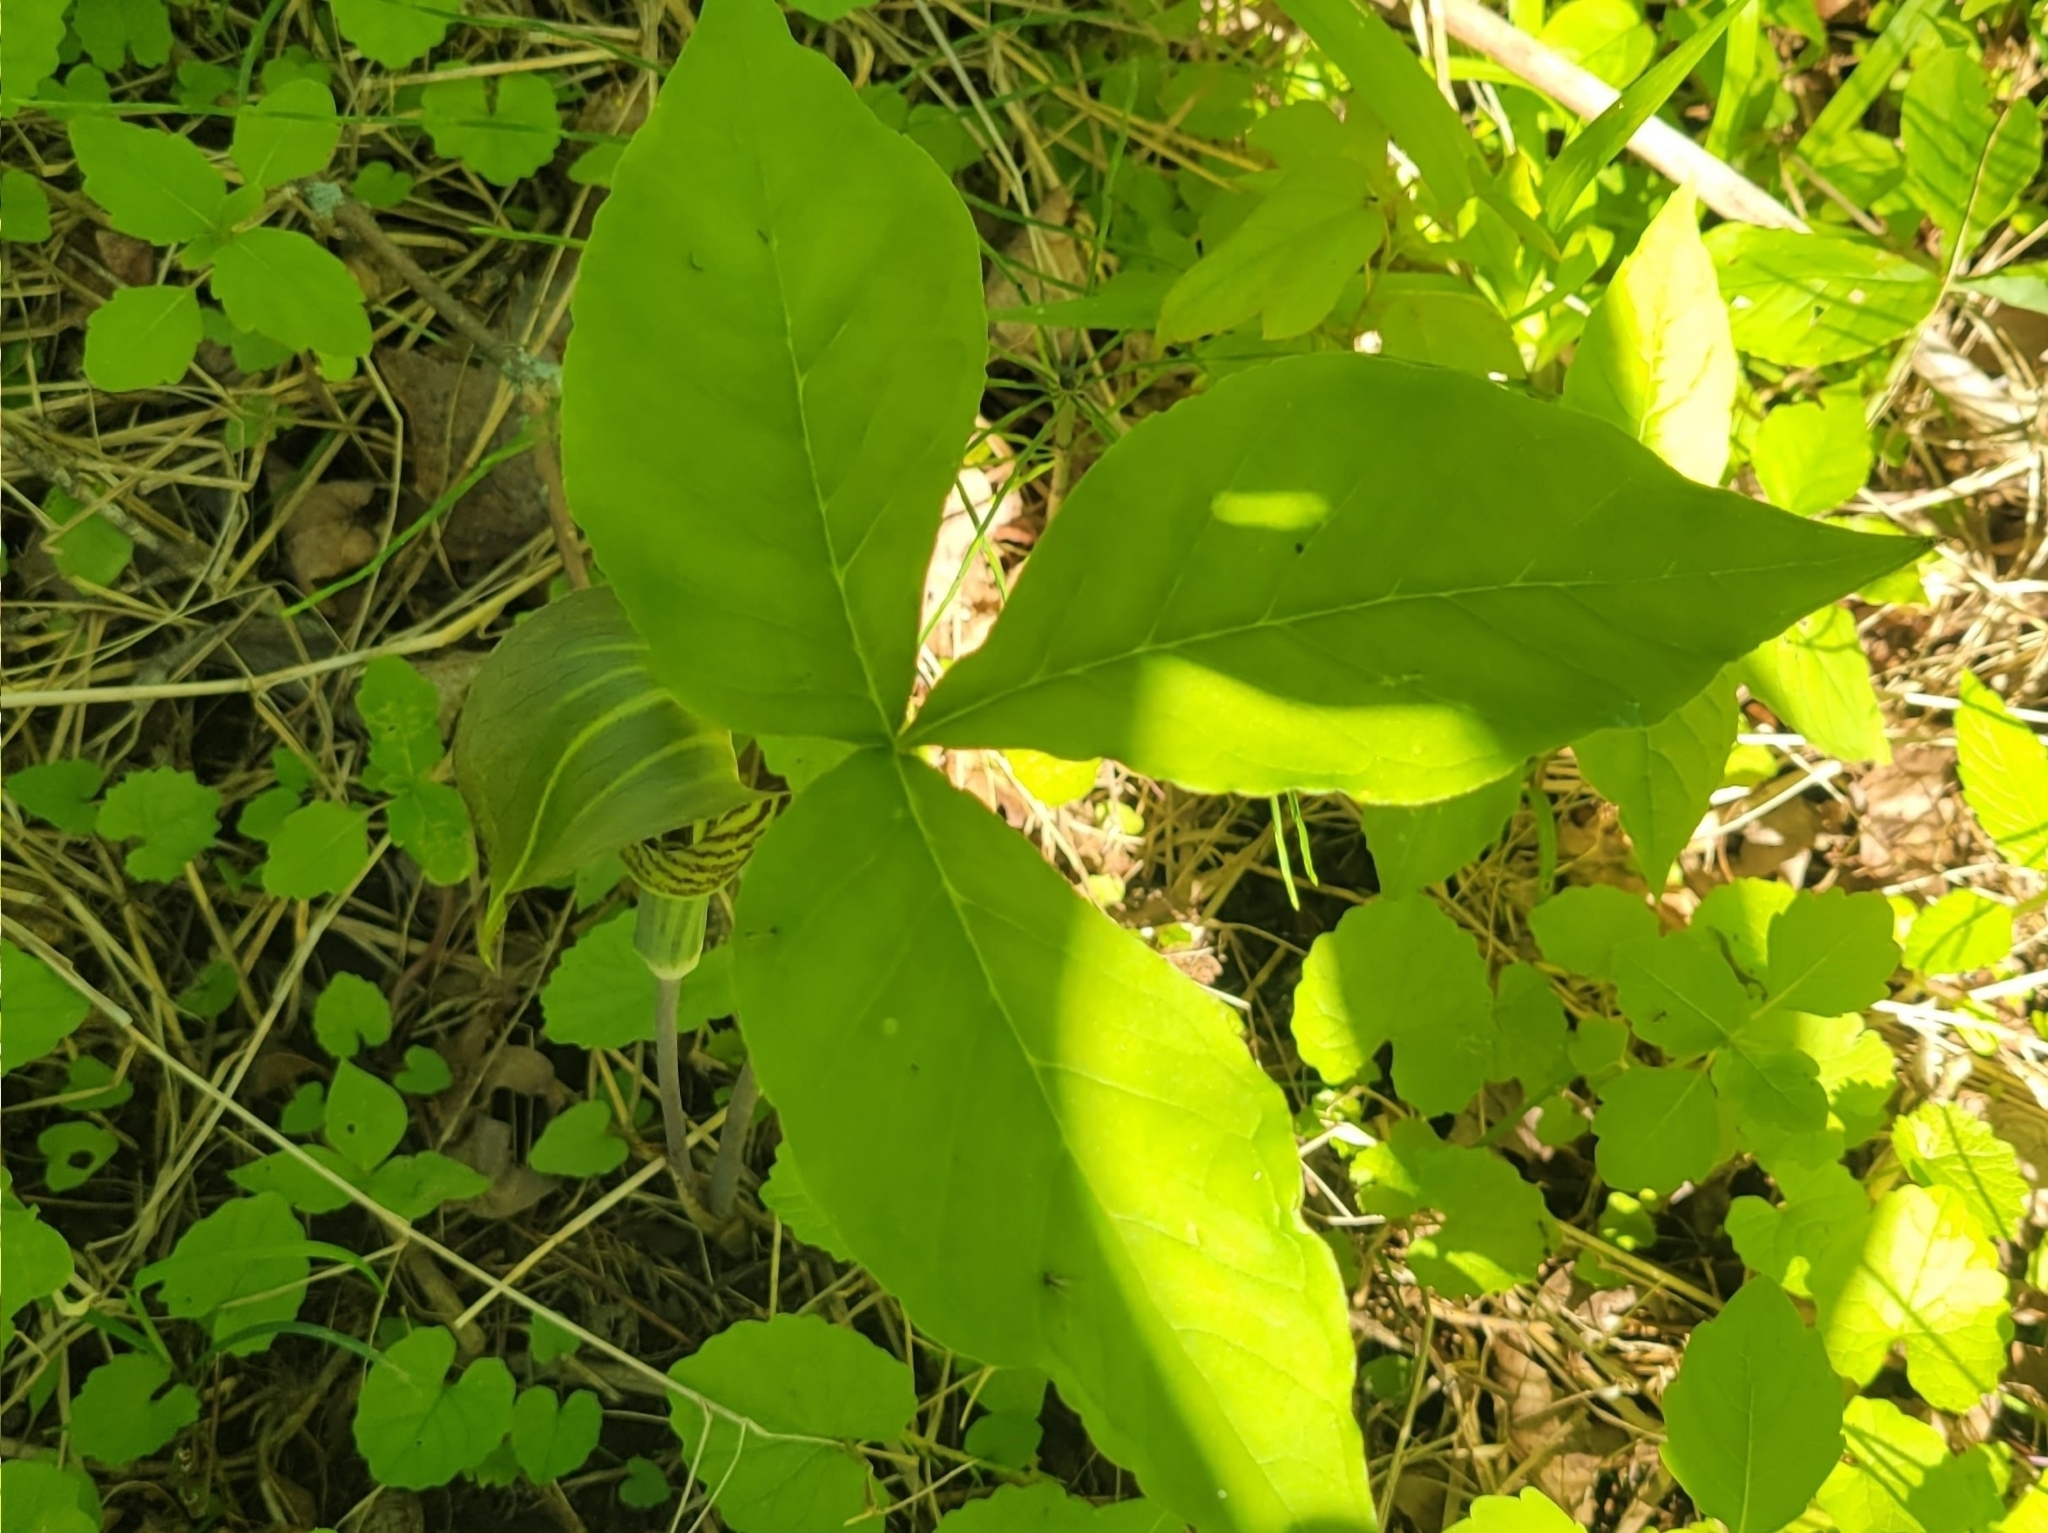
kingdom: Plantae
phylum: Tracheophyta
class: Liliopsida
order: Alismatales
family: Araceae
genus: Arisaema
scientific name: Arisaema triphyllum
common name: Jack-in-the-pulpit
